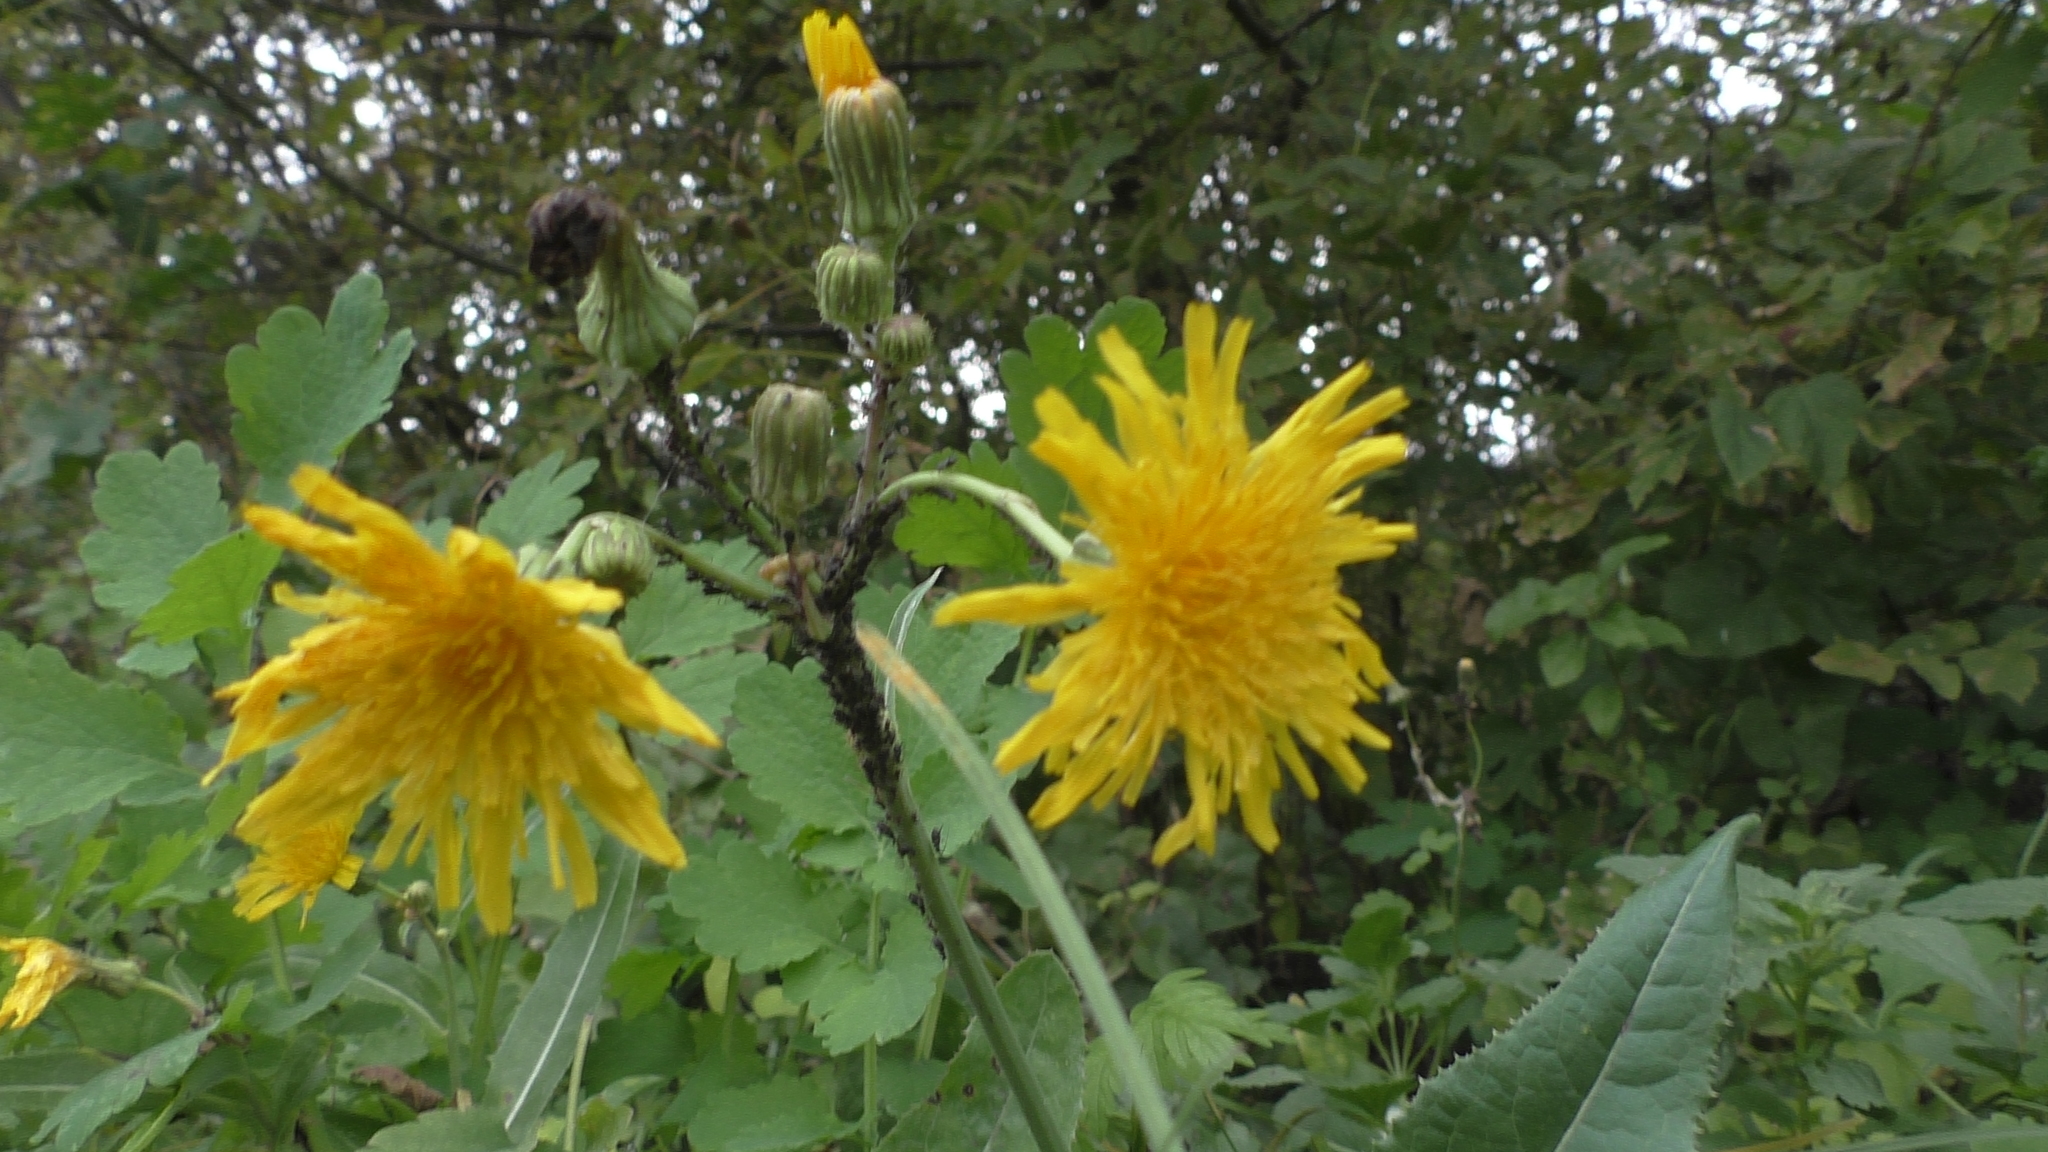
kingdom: Plantae
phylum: Tracheophyta
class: Magnoliopsida
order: Asterales
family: Asteraceae
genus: Sonchus
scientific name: Sonchus arvensis
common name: Perennial sow-thistle
